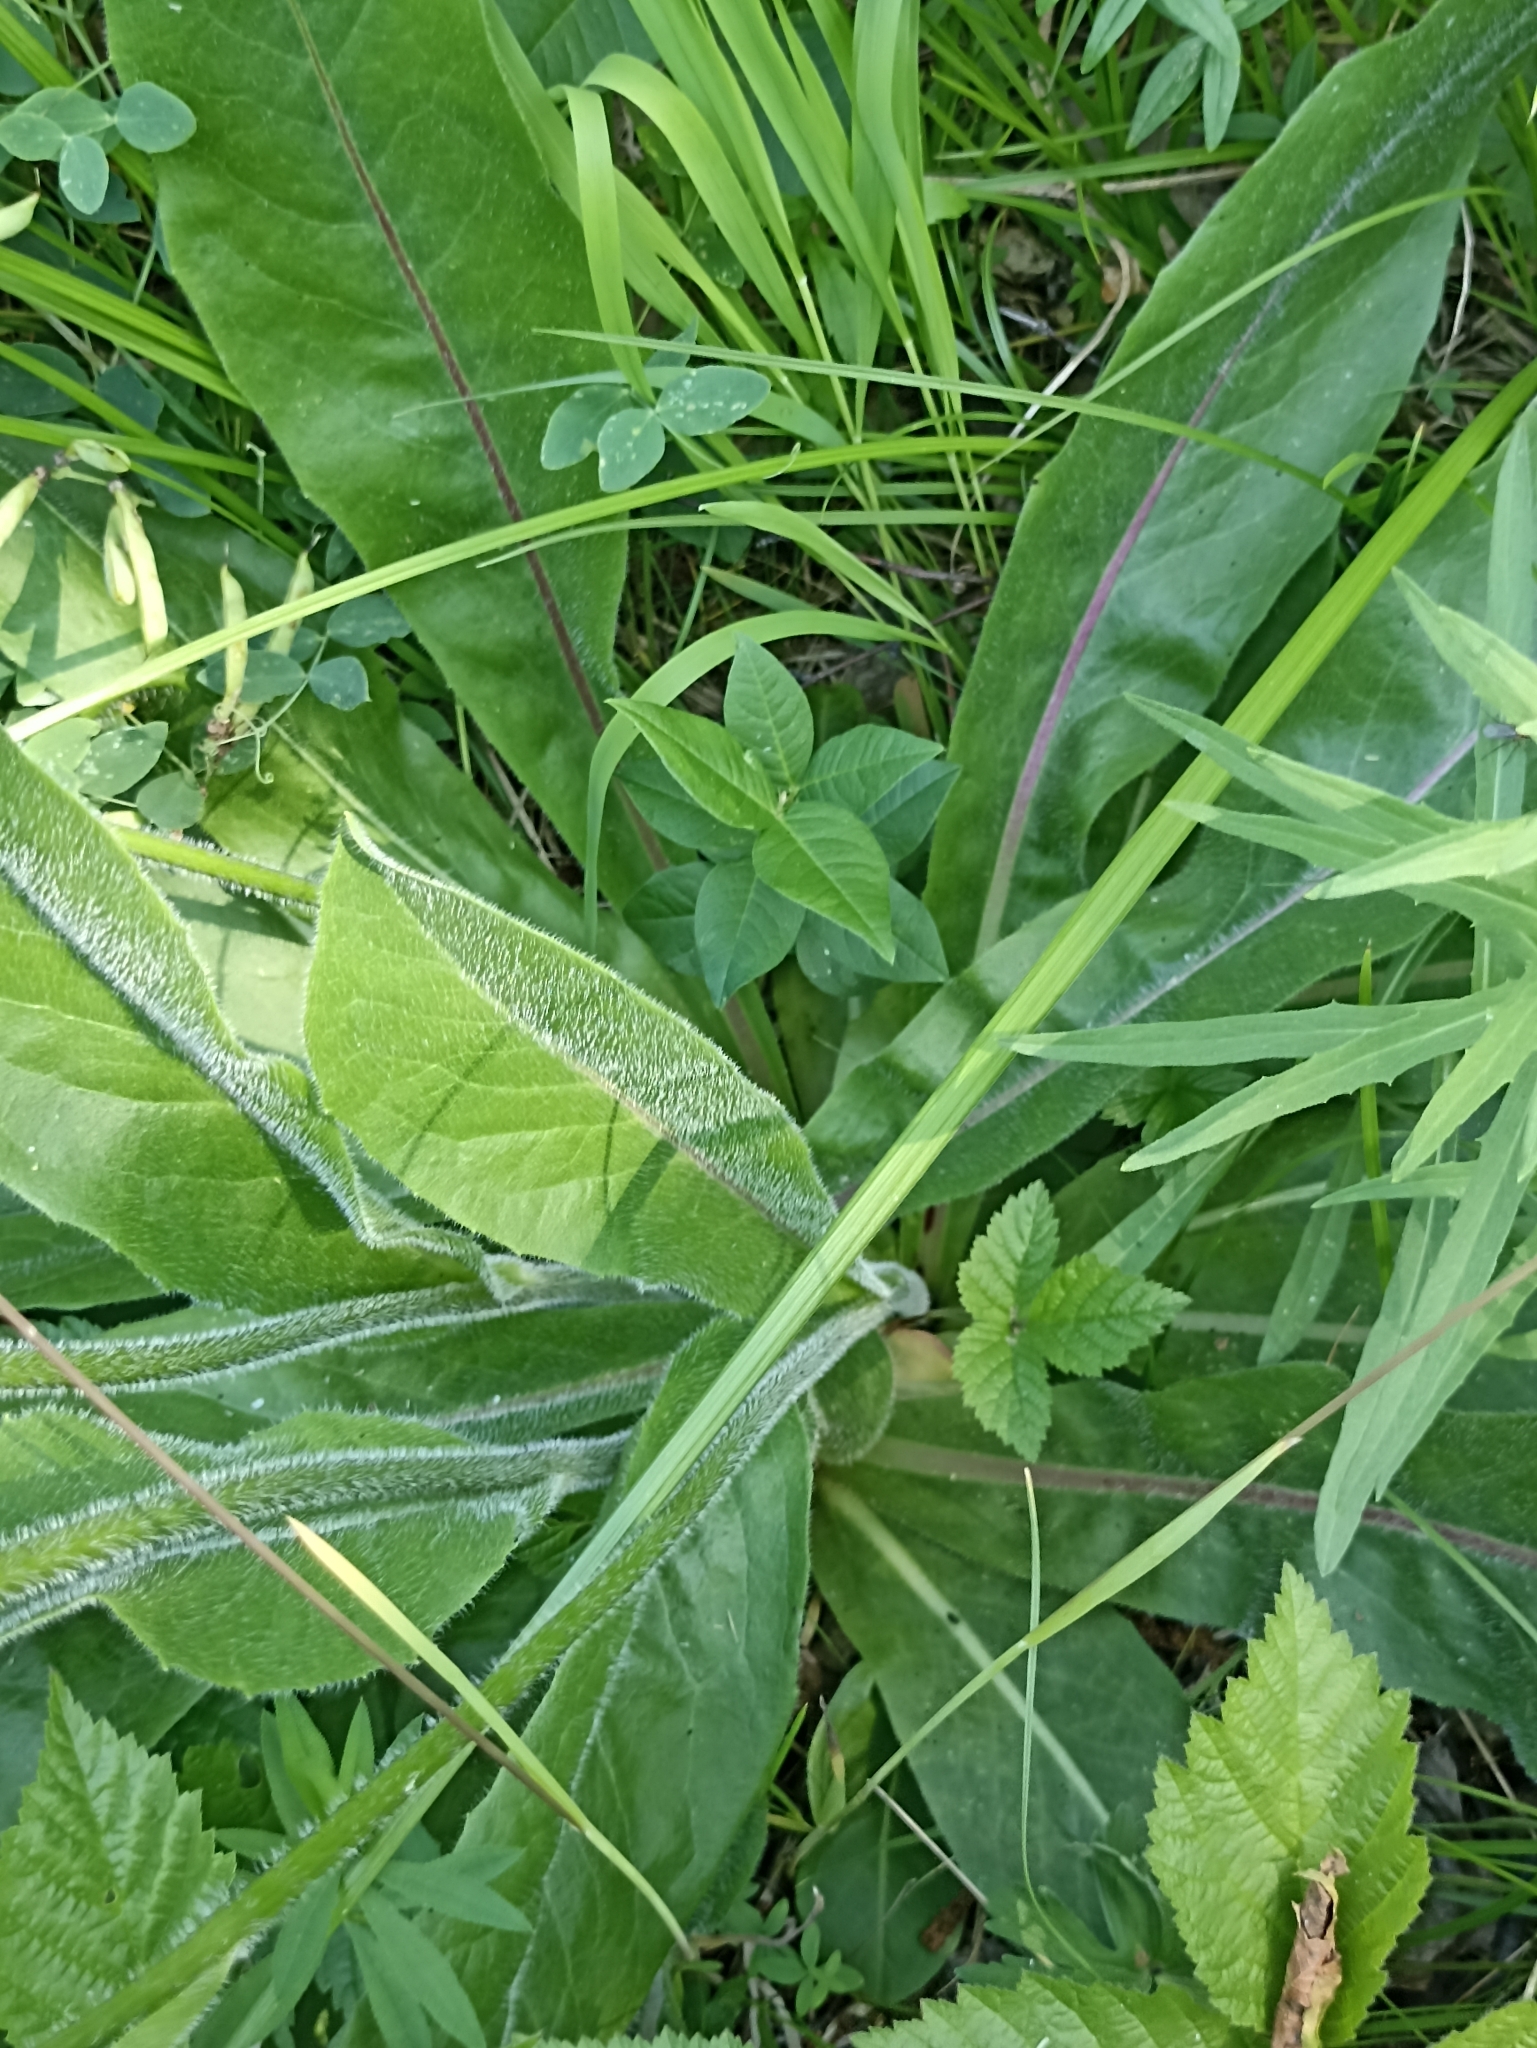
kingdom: Plantae
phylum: Tracheophyta
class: Magnoliopsida
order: Asterales
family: Asteraceae
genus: Trommsdorffia
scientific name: Trommsdorffia maculata
